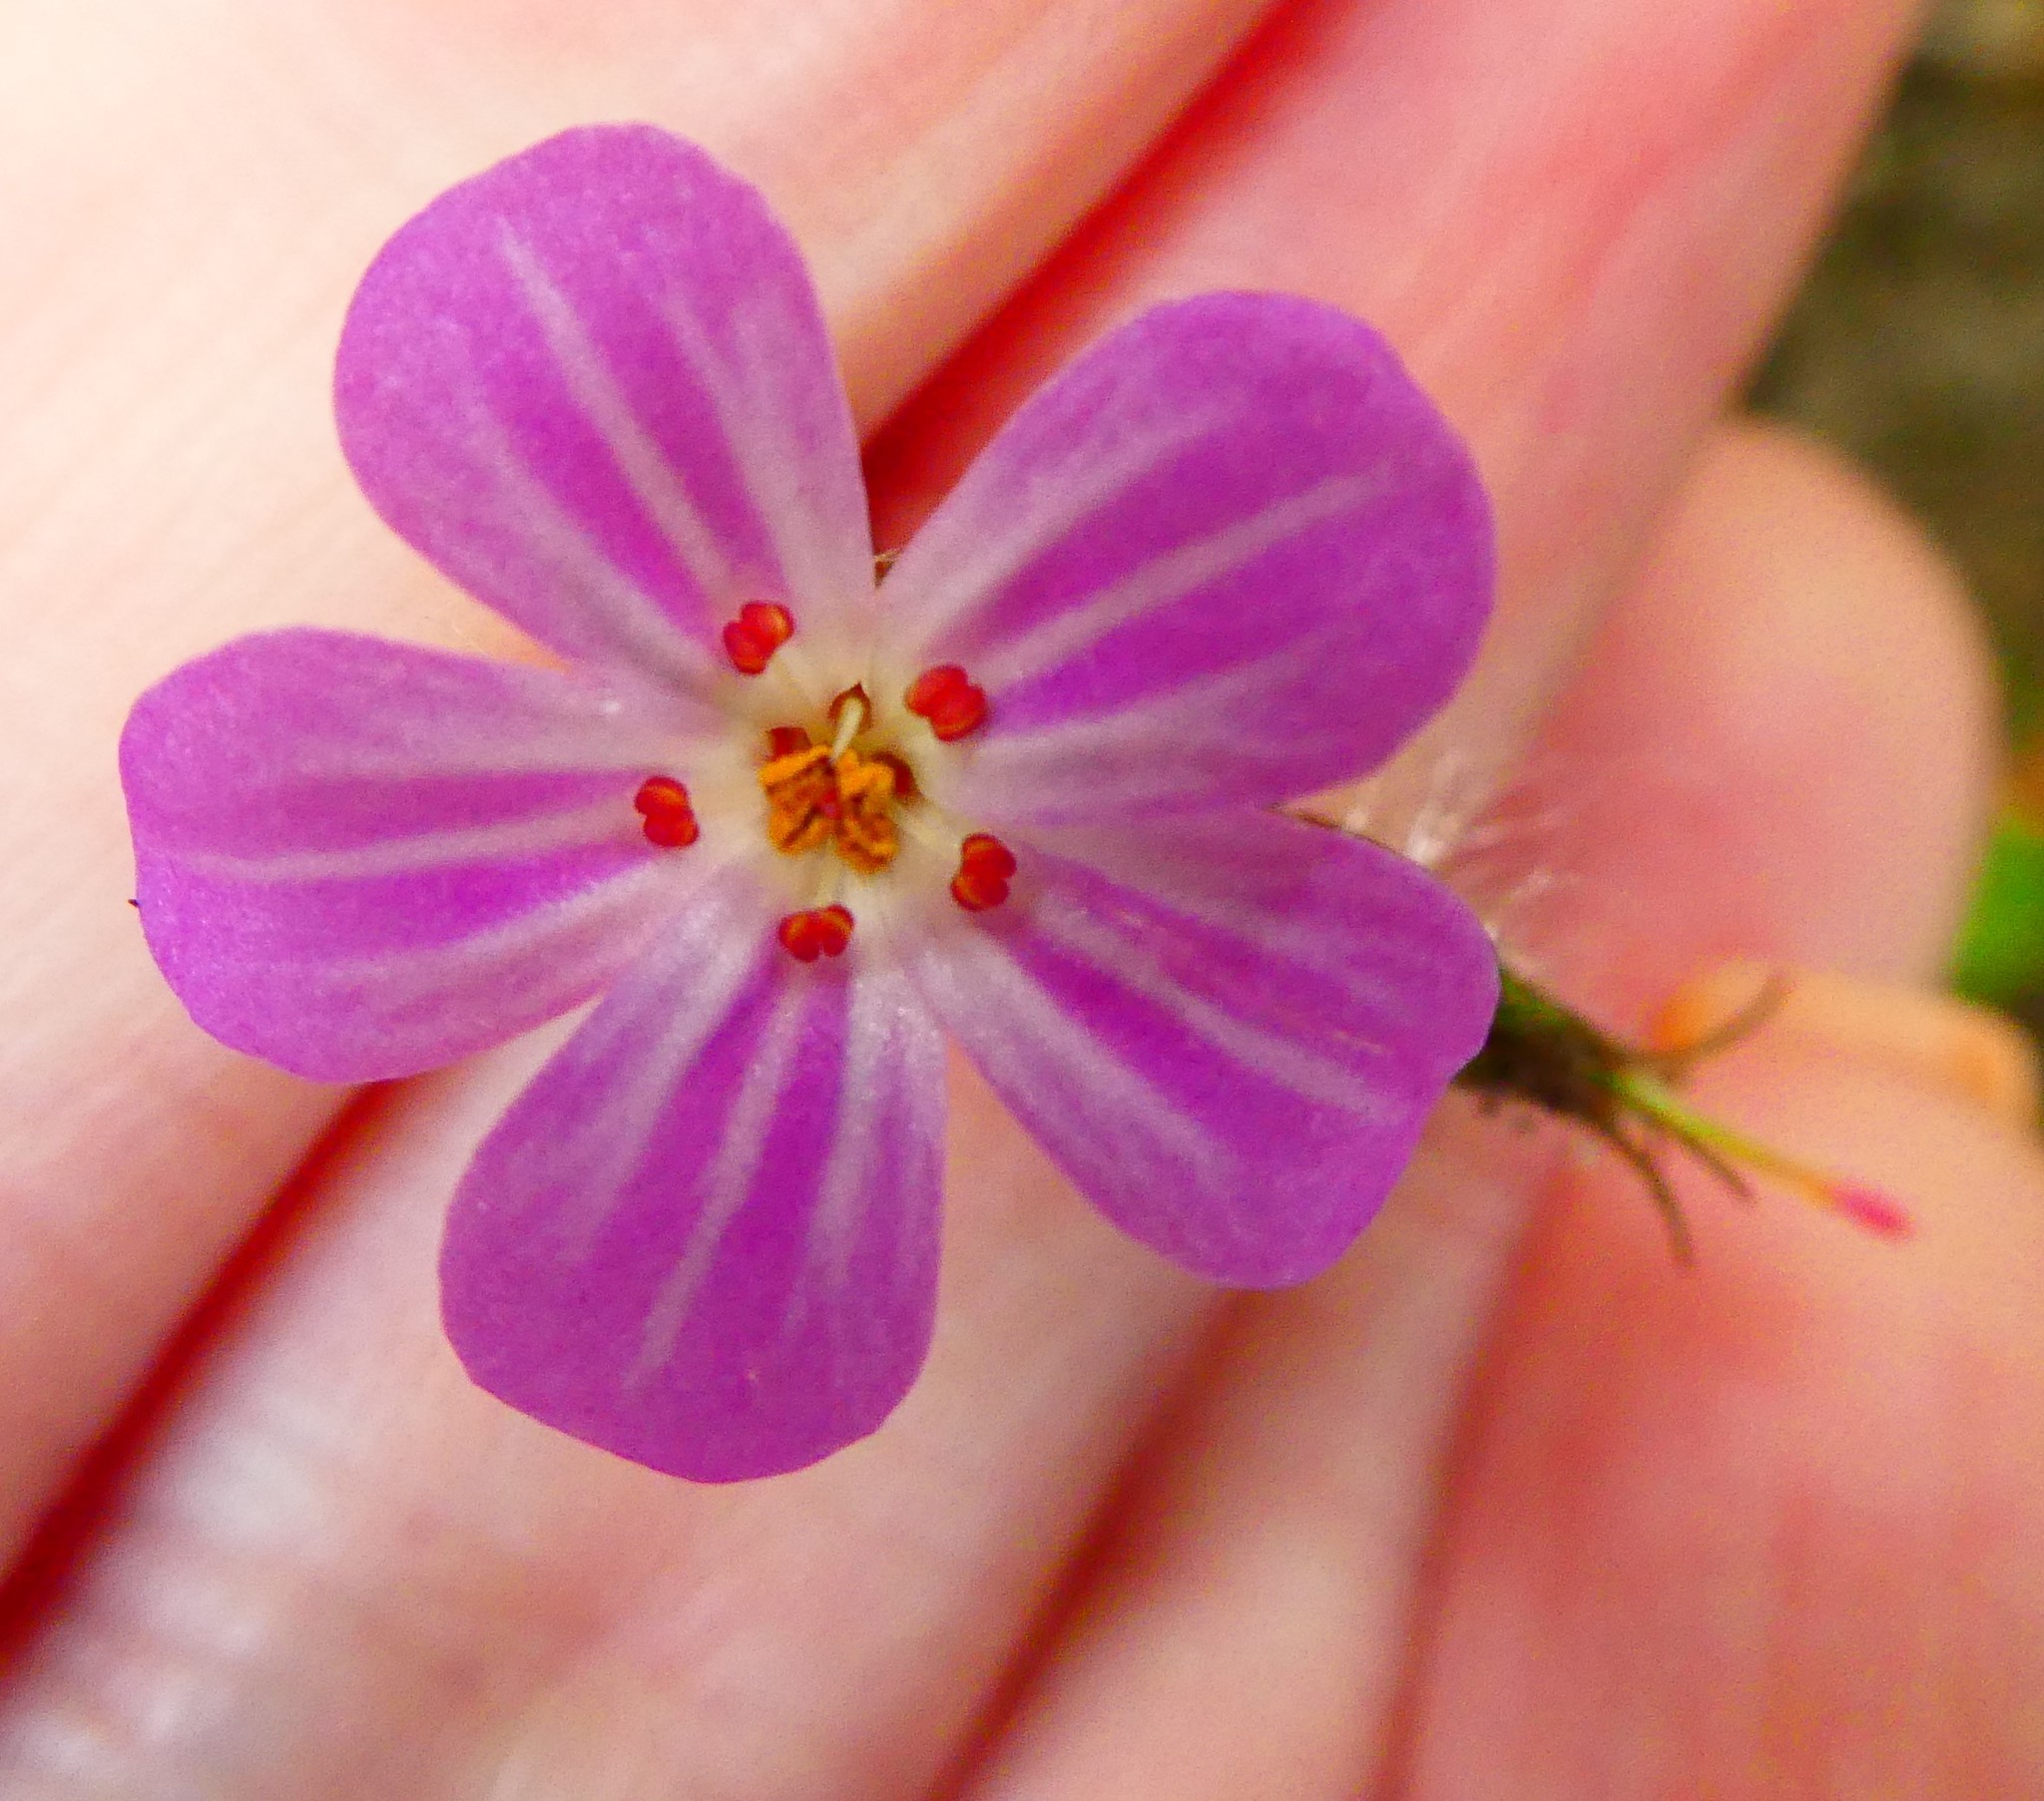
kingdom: Plantae
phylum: Tracheophyta
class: Magnoliopsida
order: Geraniales
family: Geraniaceae
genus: Geranium
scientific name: Geranium robertianum
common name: Herb-robert
